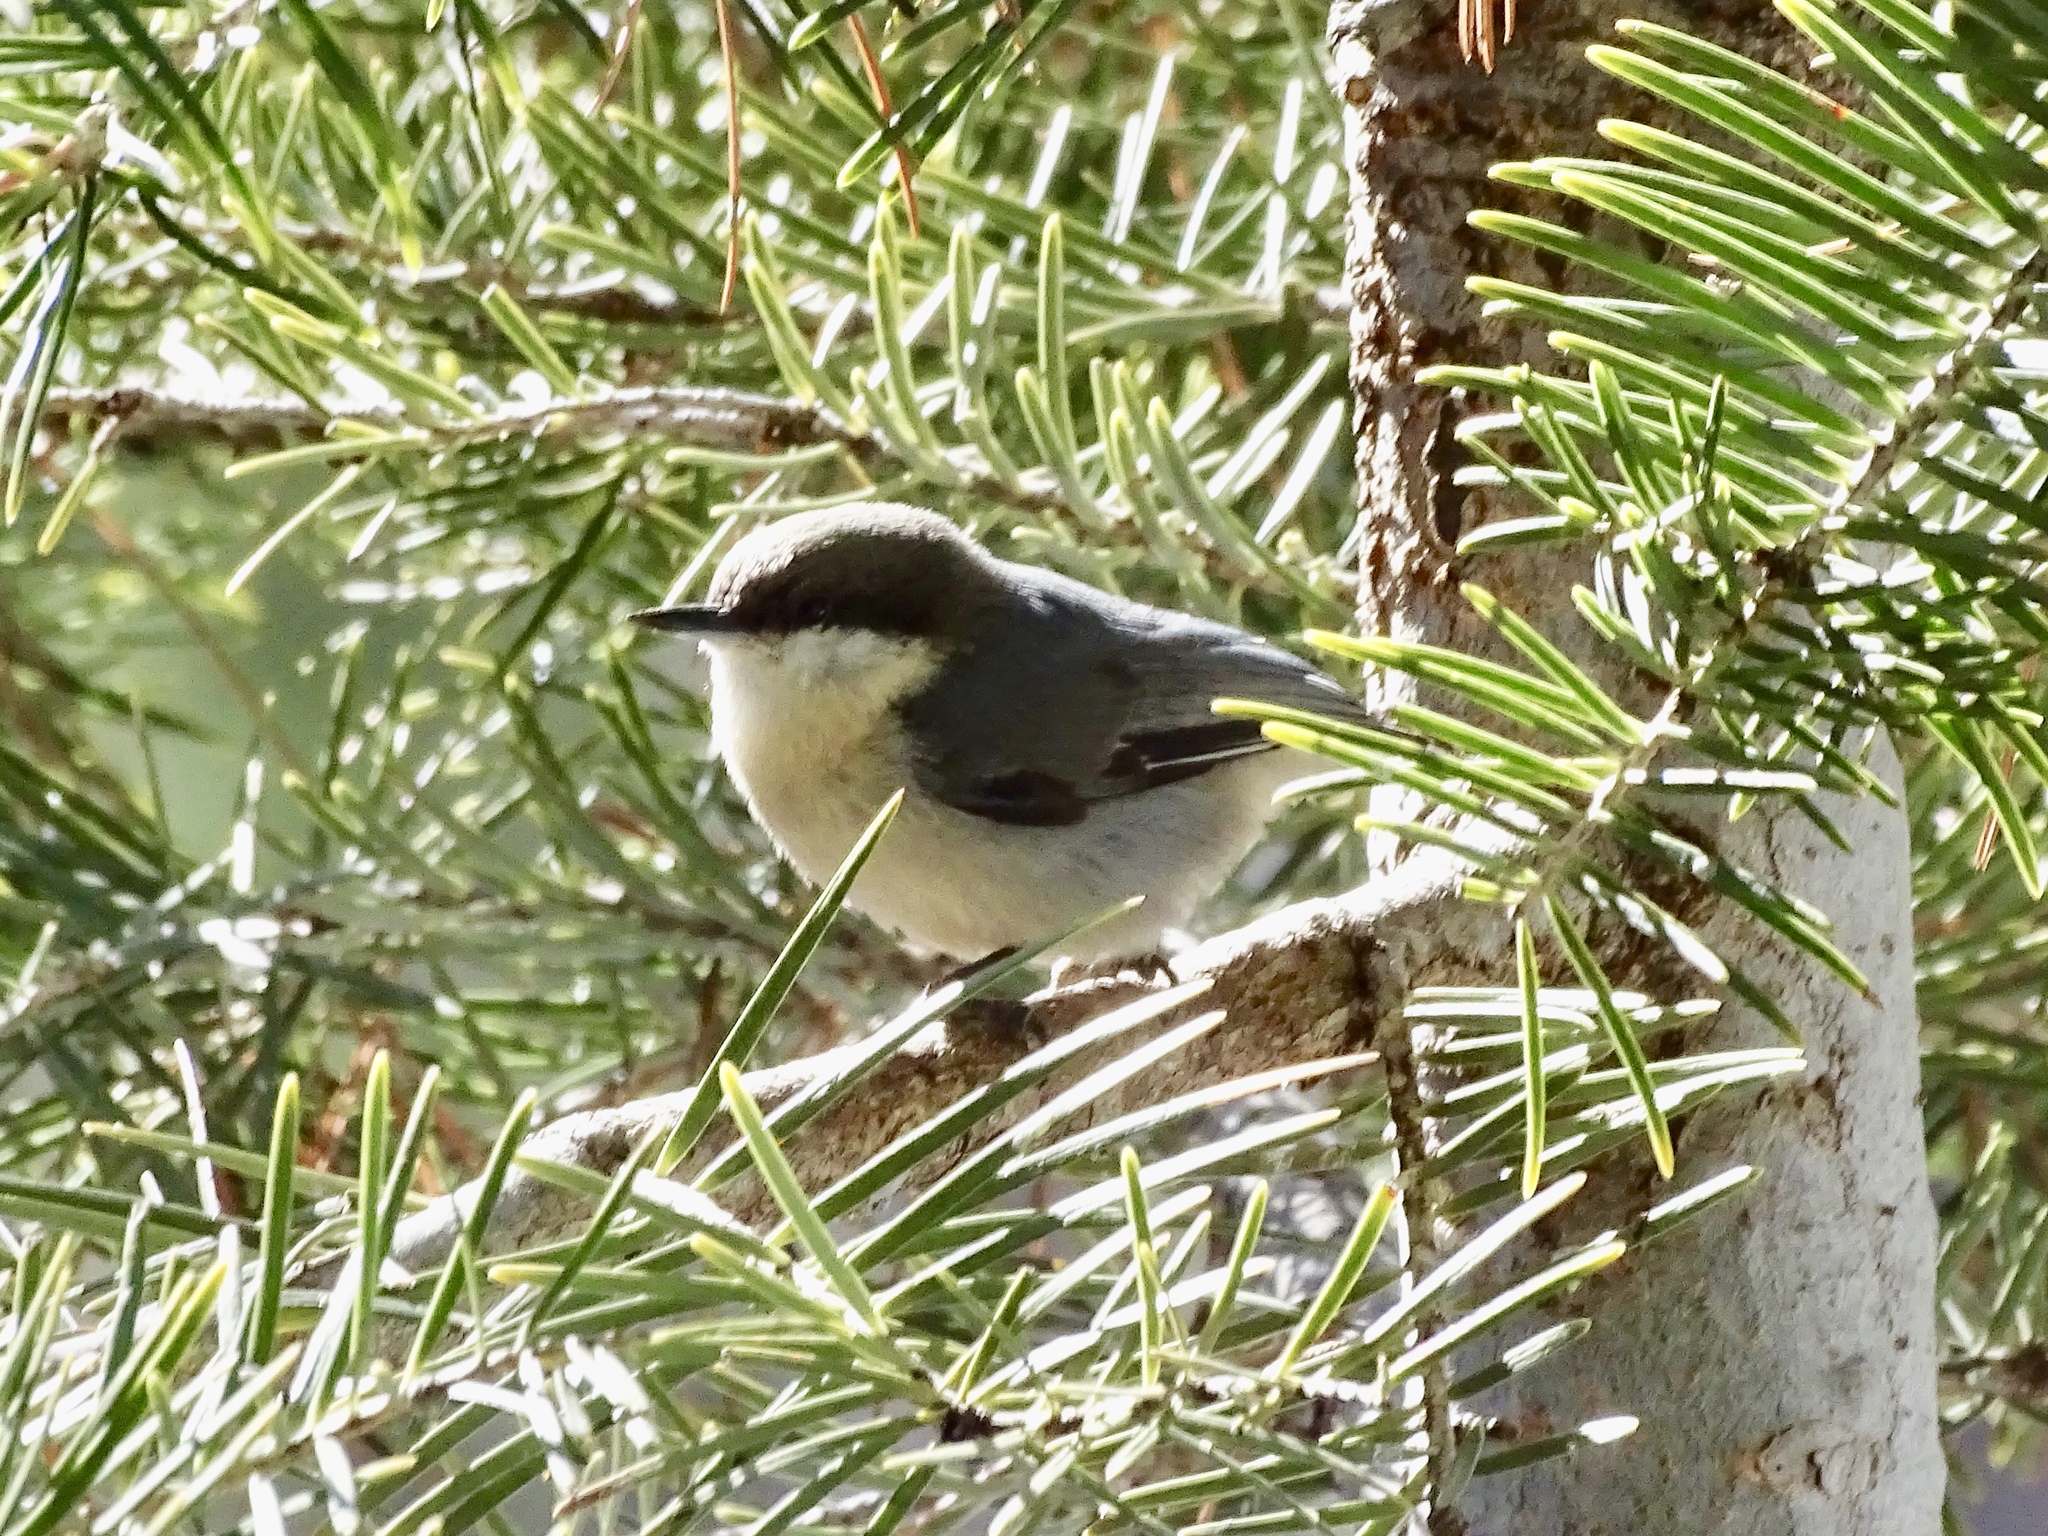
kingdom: Animalia
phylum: Chordata
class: Aves
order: Passeriformes
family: Sittidae
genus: Sitta
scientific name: Sitta pygmaea
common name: Pygmy nuthatch
